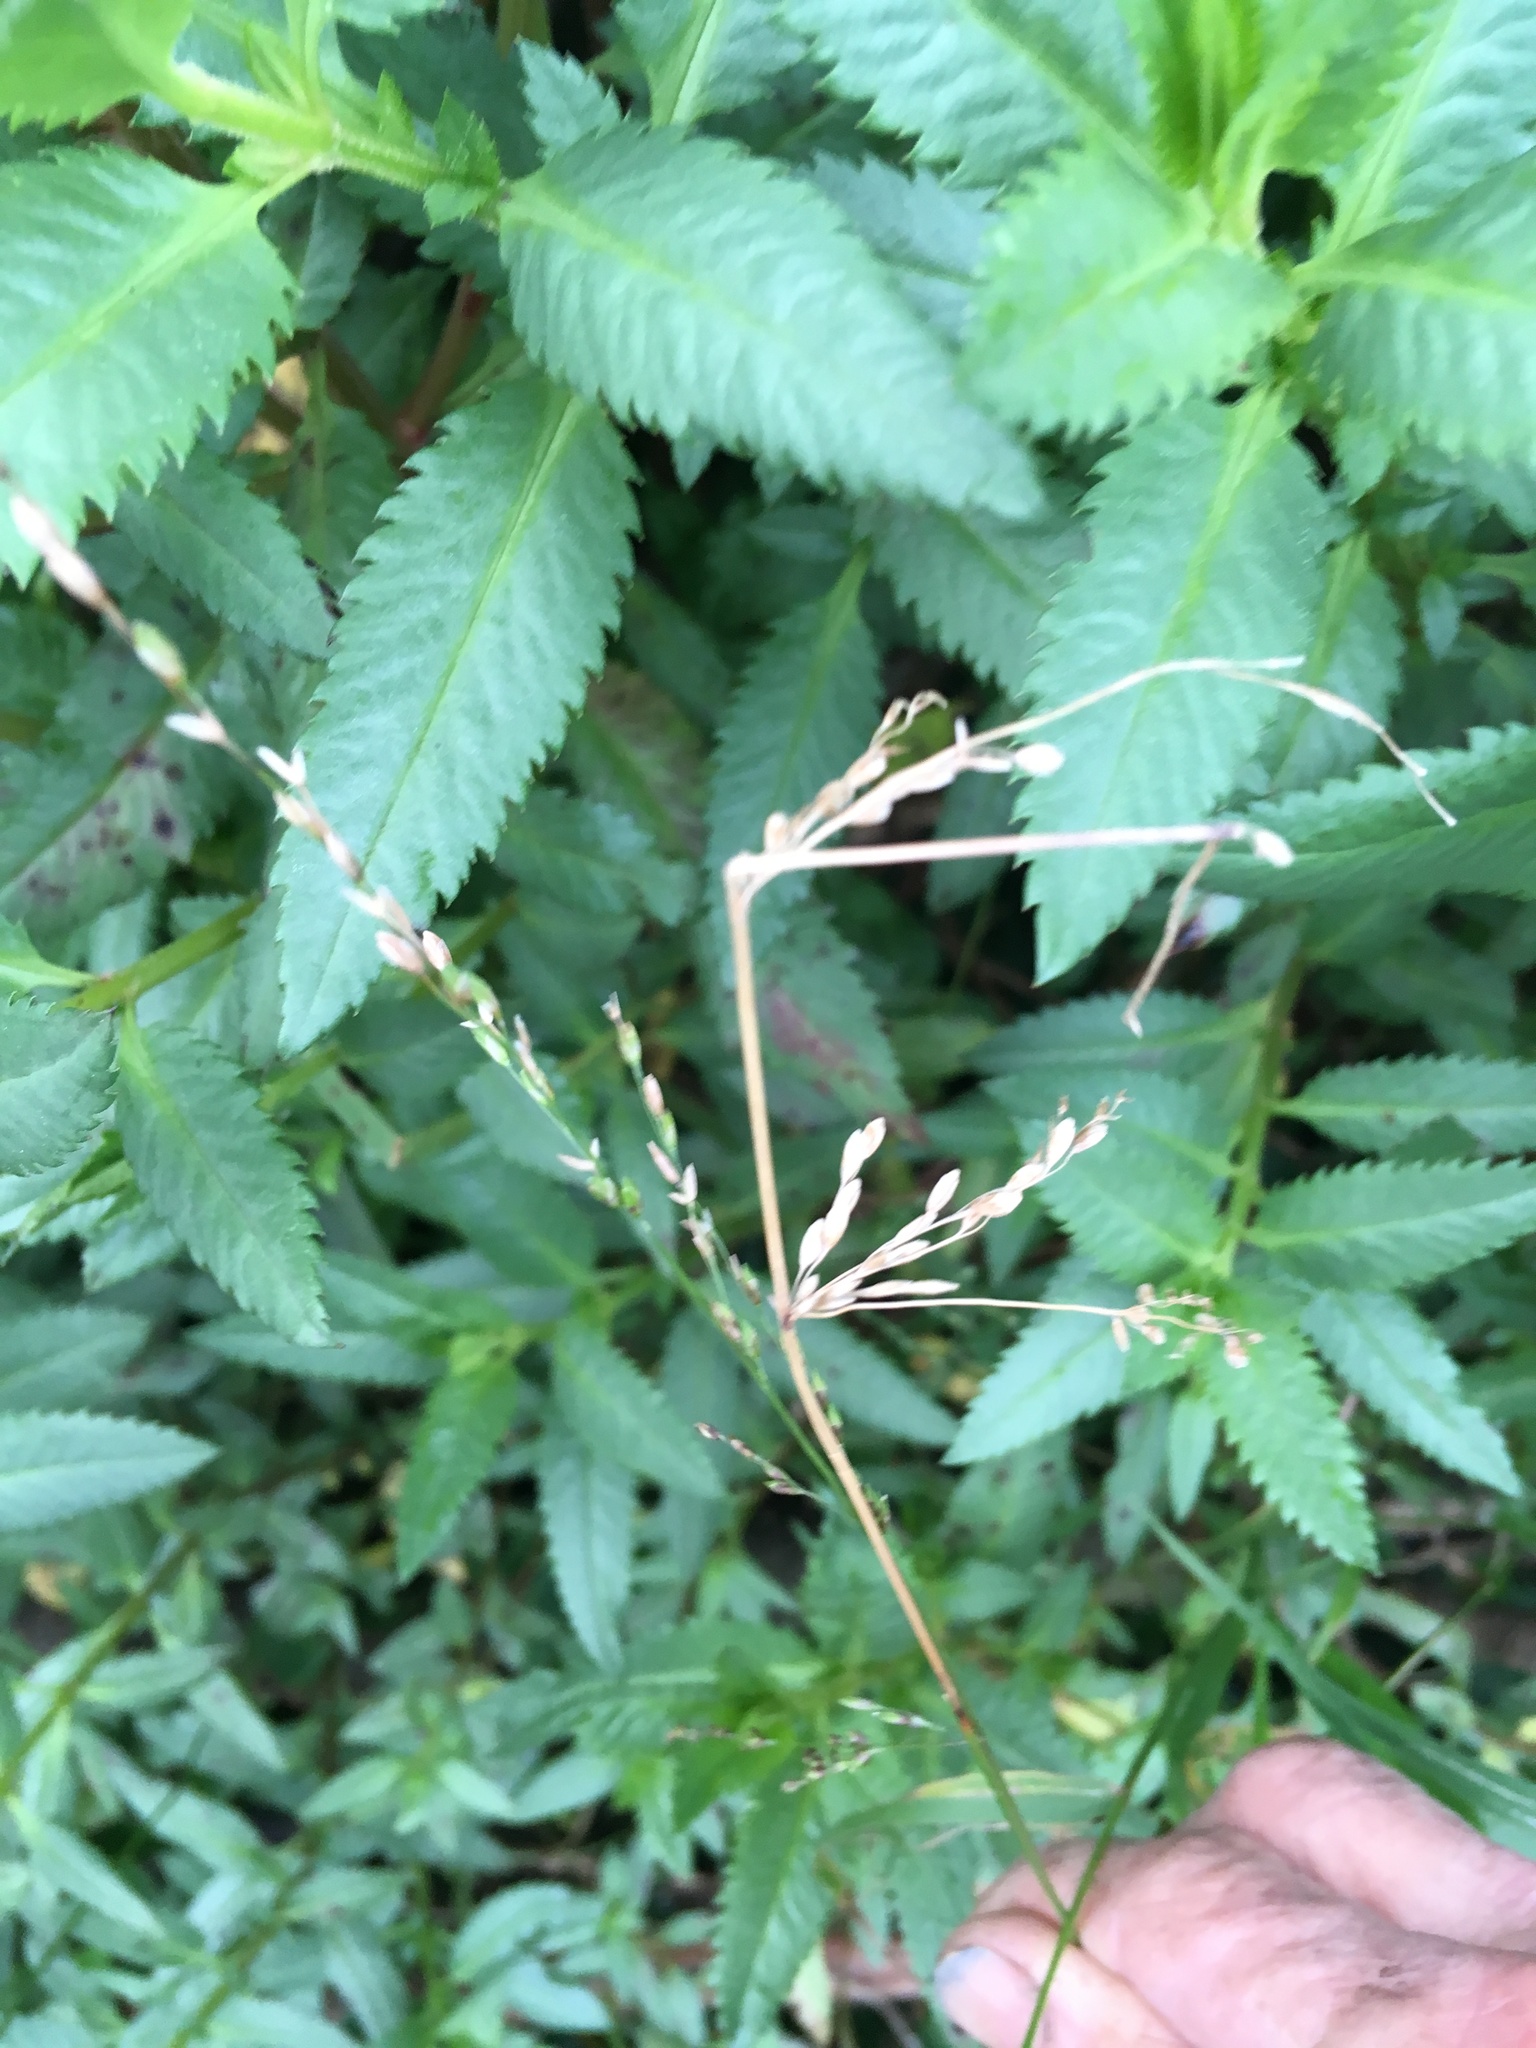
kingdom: Plantae
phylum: Tracheophyta
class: Liliopsida
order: Poales
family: Poaceae
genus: Ehrharta
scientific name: Ehrharta erecta
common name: Panic veldtgrass
